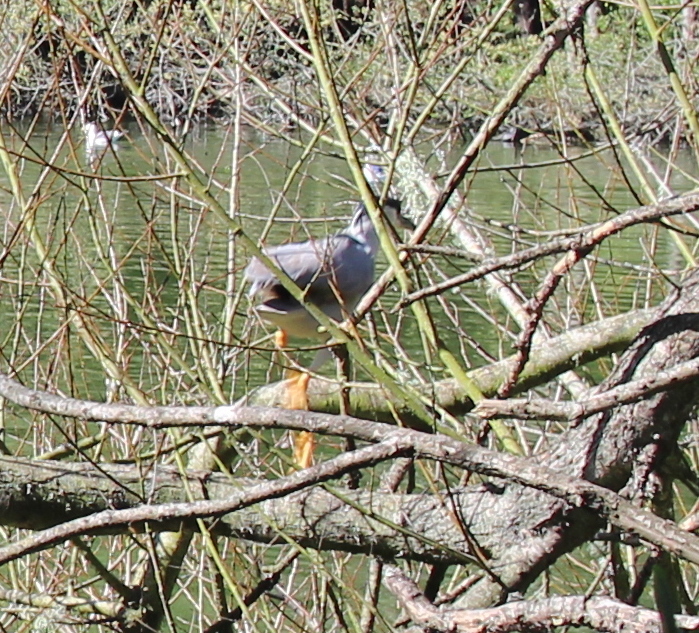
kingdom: Animalia
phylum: Chordata
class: Aves
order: Pelecaniformes
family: Ardeidae
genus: Nycticorax
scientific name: Nycticorax nycticorax
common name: Black-crowned night heron
